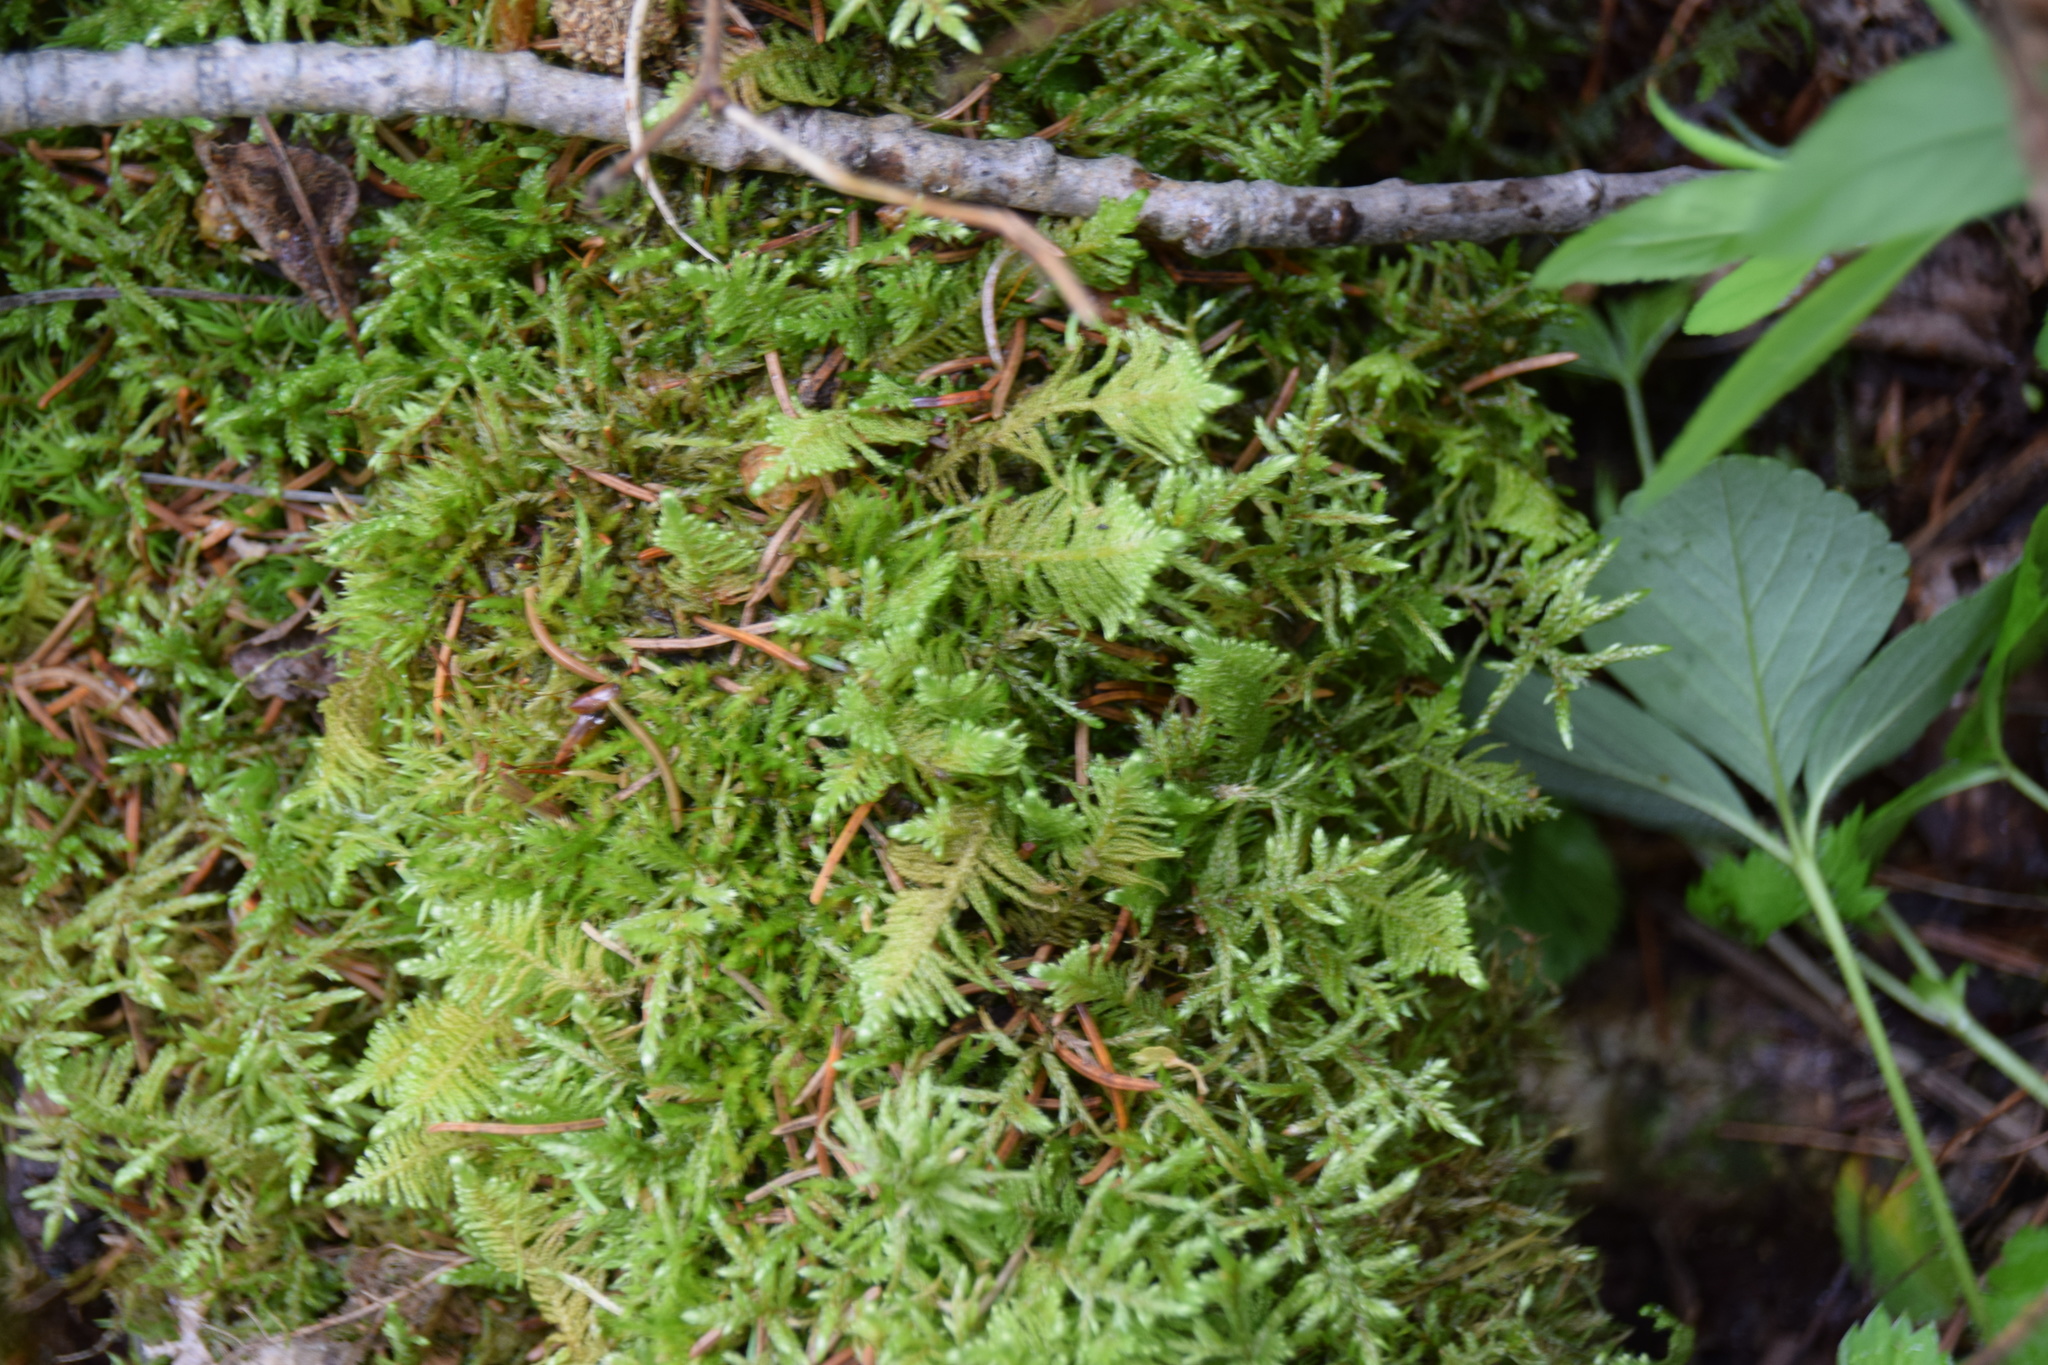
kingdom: Plantae
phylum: Bryophyta
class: Bryopsida
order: Hypnales
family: Pylaisiaceae
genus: Ptilium
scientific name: Ptilium crista-castrensis
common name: Knight's plume moss
